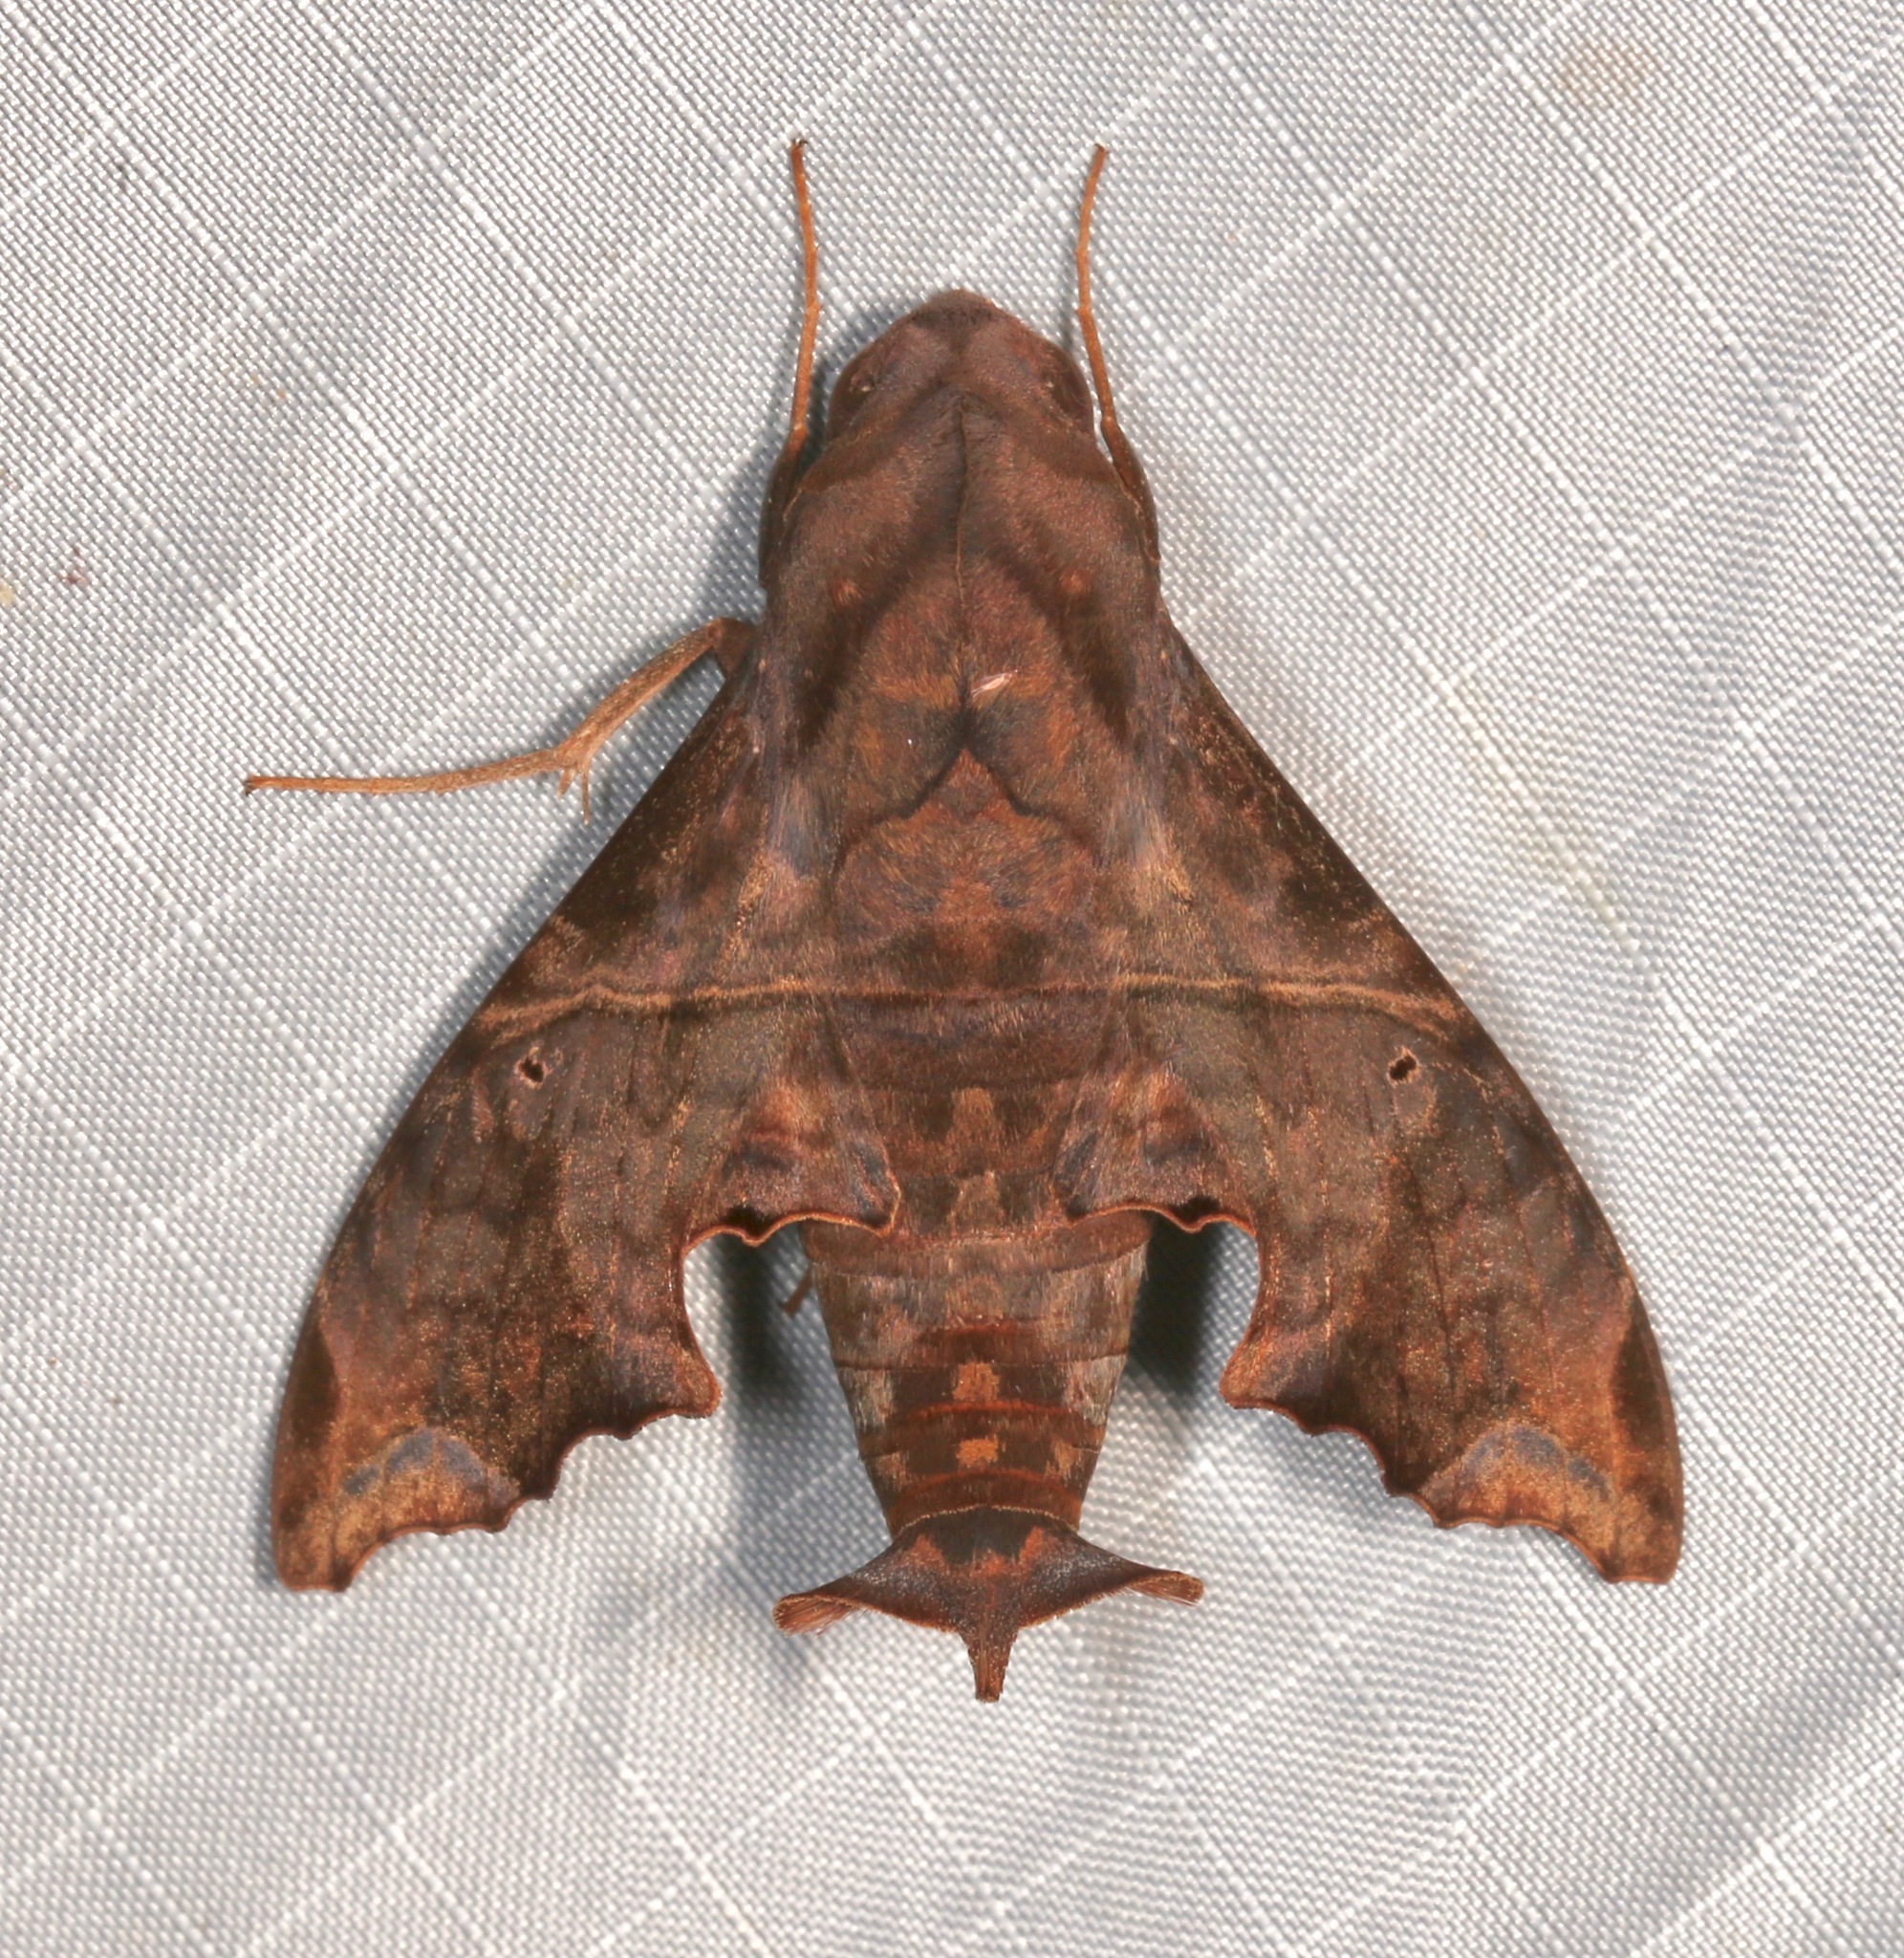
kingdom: Animalia
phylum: Arthropoda
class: Insecta
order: Lepidoptera
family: Sphingidae
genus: Enyo
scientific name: Enyo lugubris
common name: Mournful sphinx
